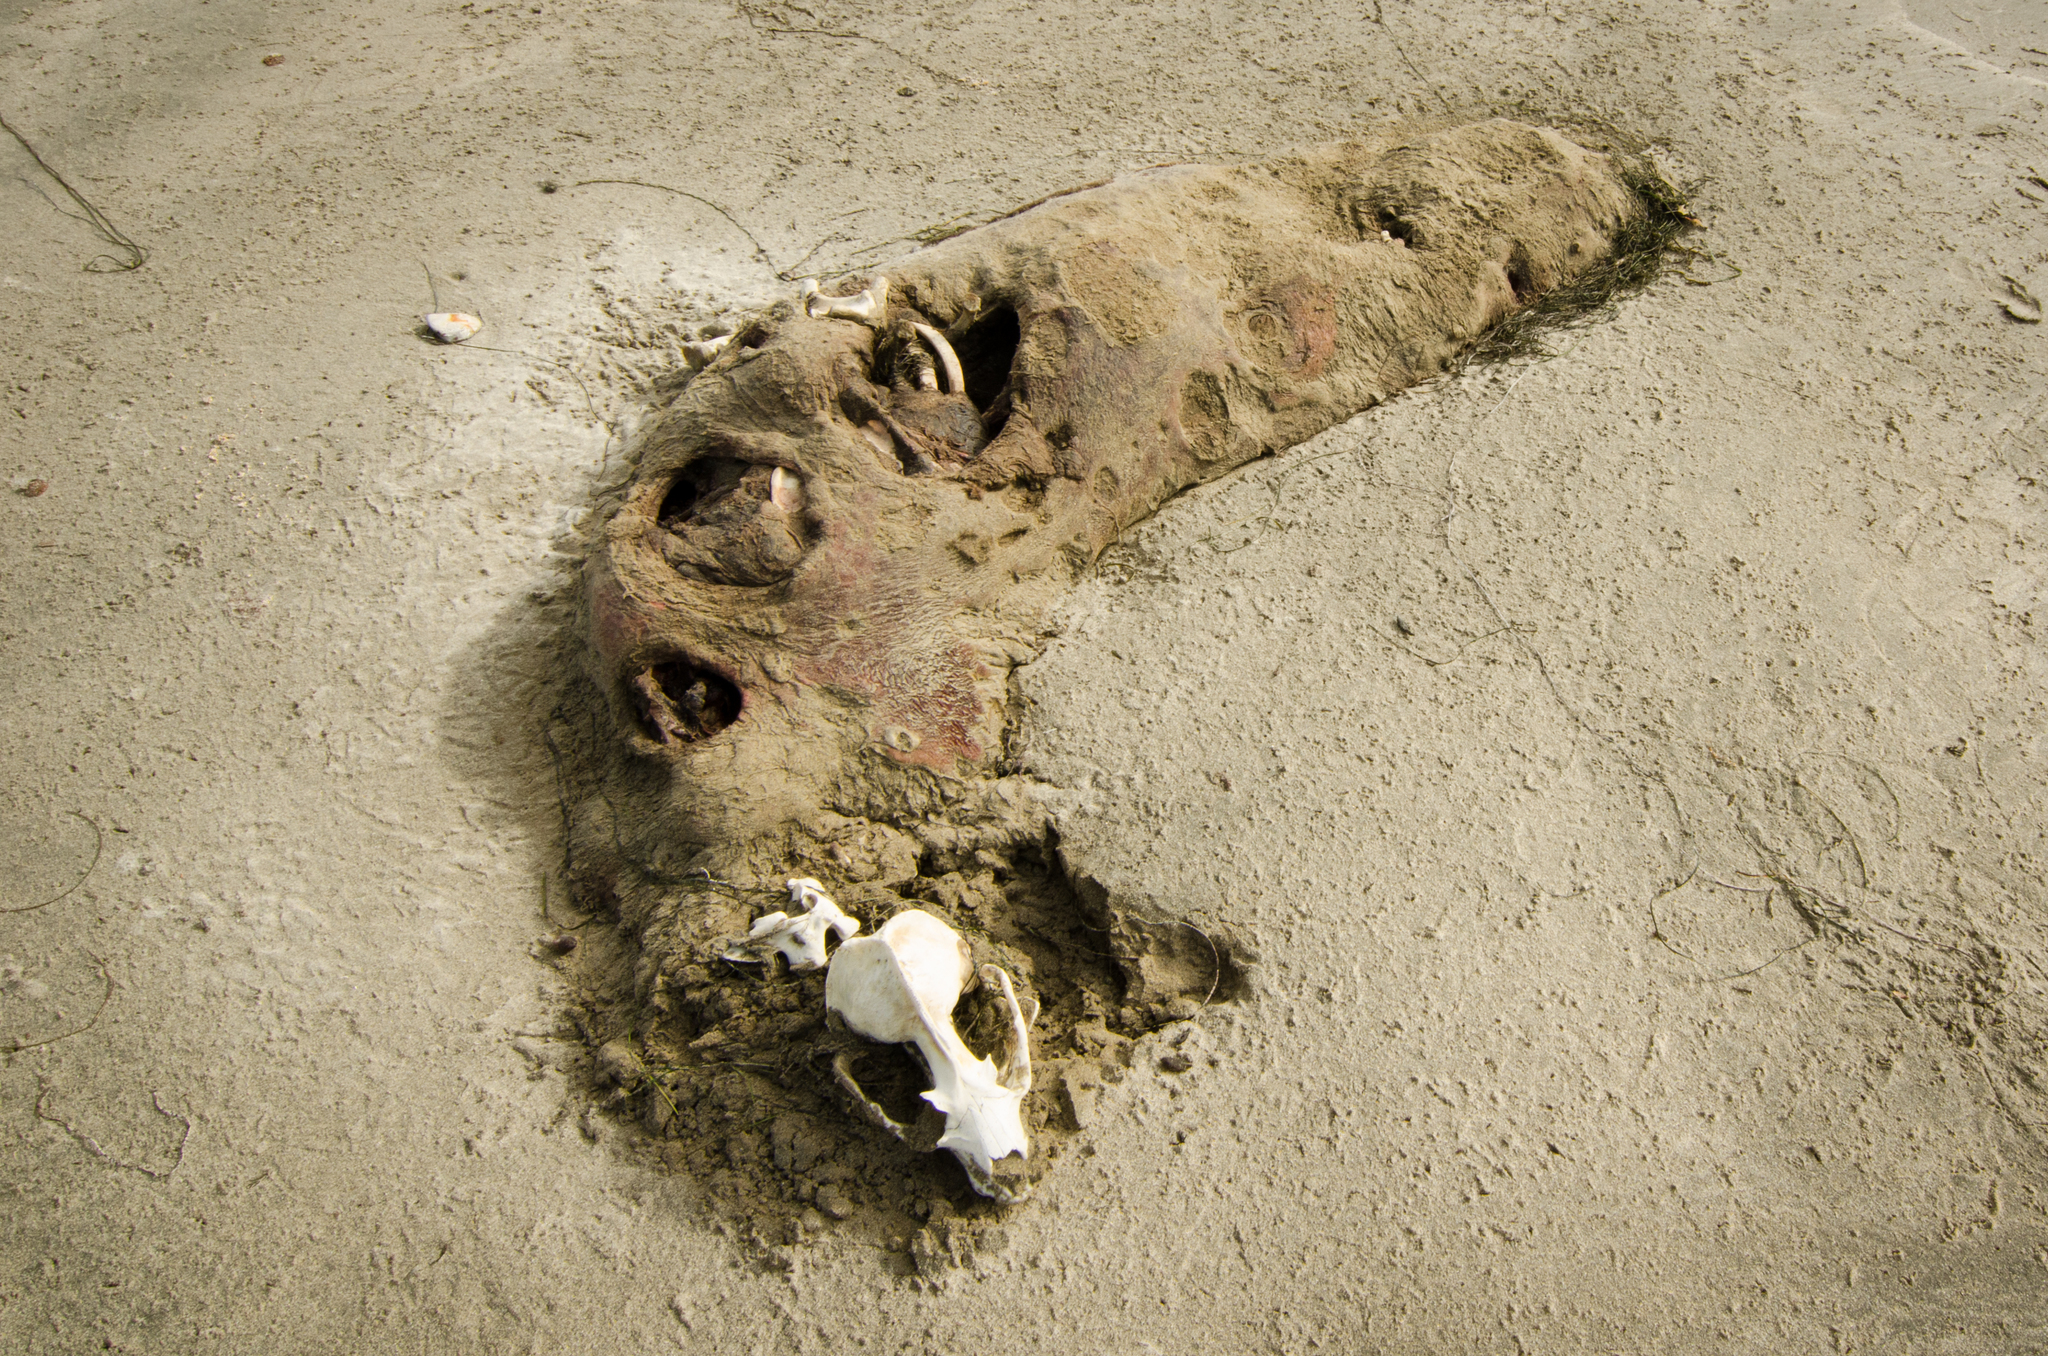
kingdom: Animalia
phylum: Chordata
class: Mammalia
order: Carnivora
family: Otariidae
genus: Zalophus
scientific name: Zalophus californianus
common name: California sea lion
